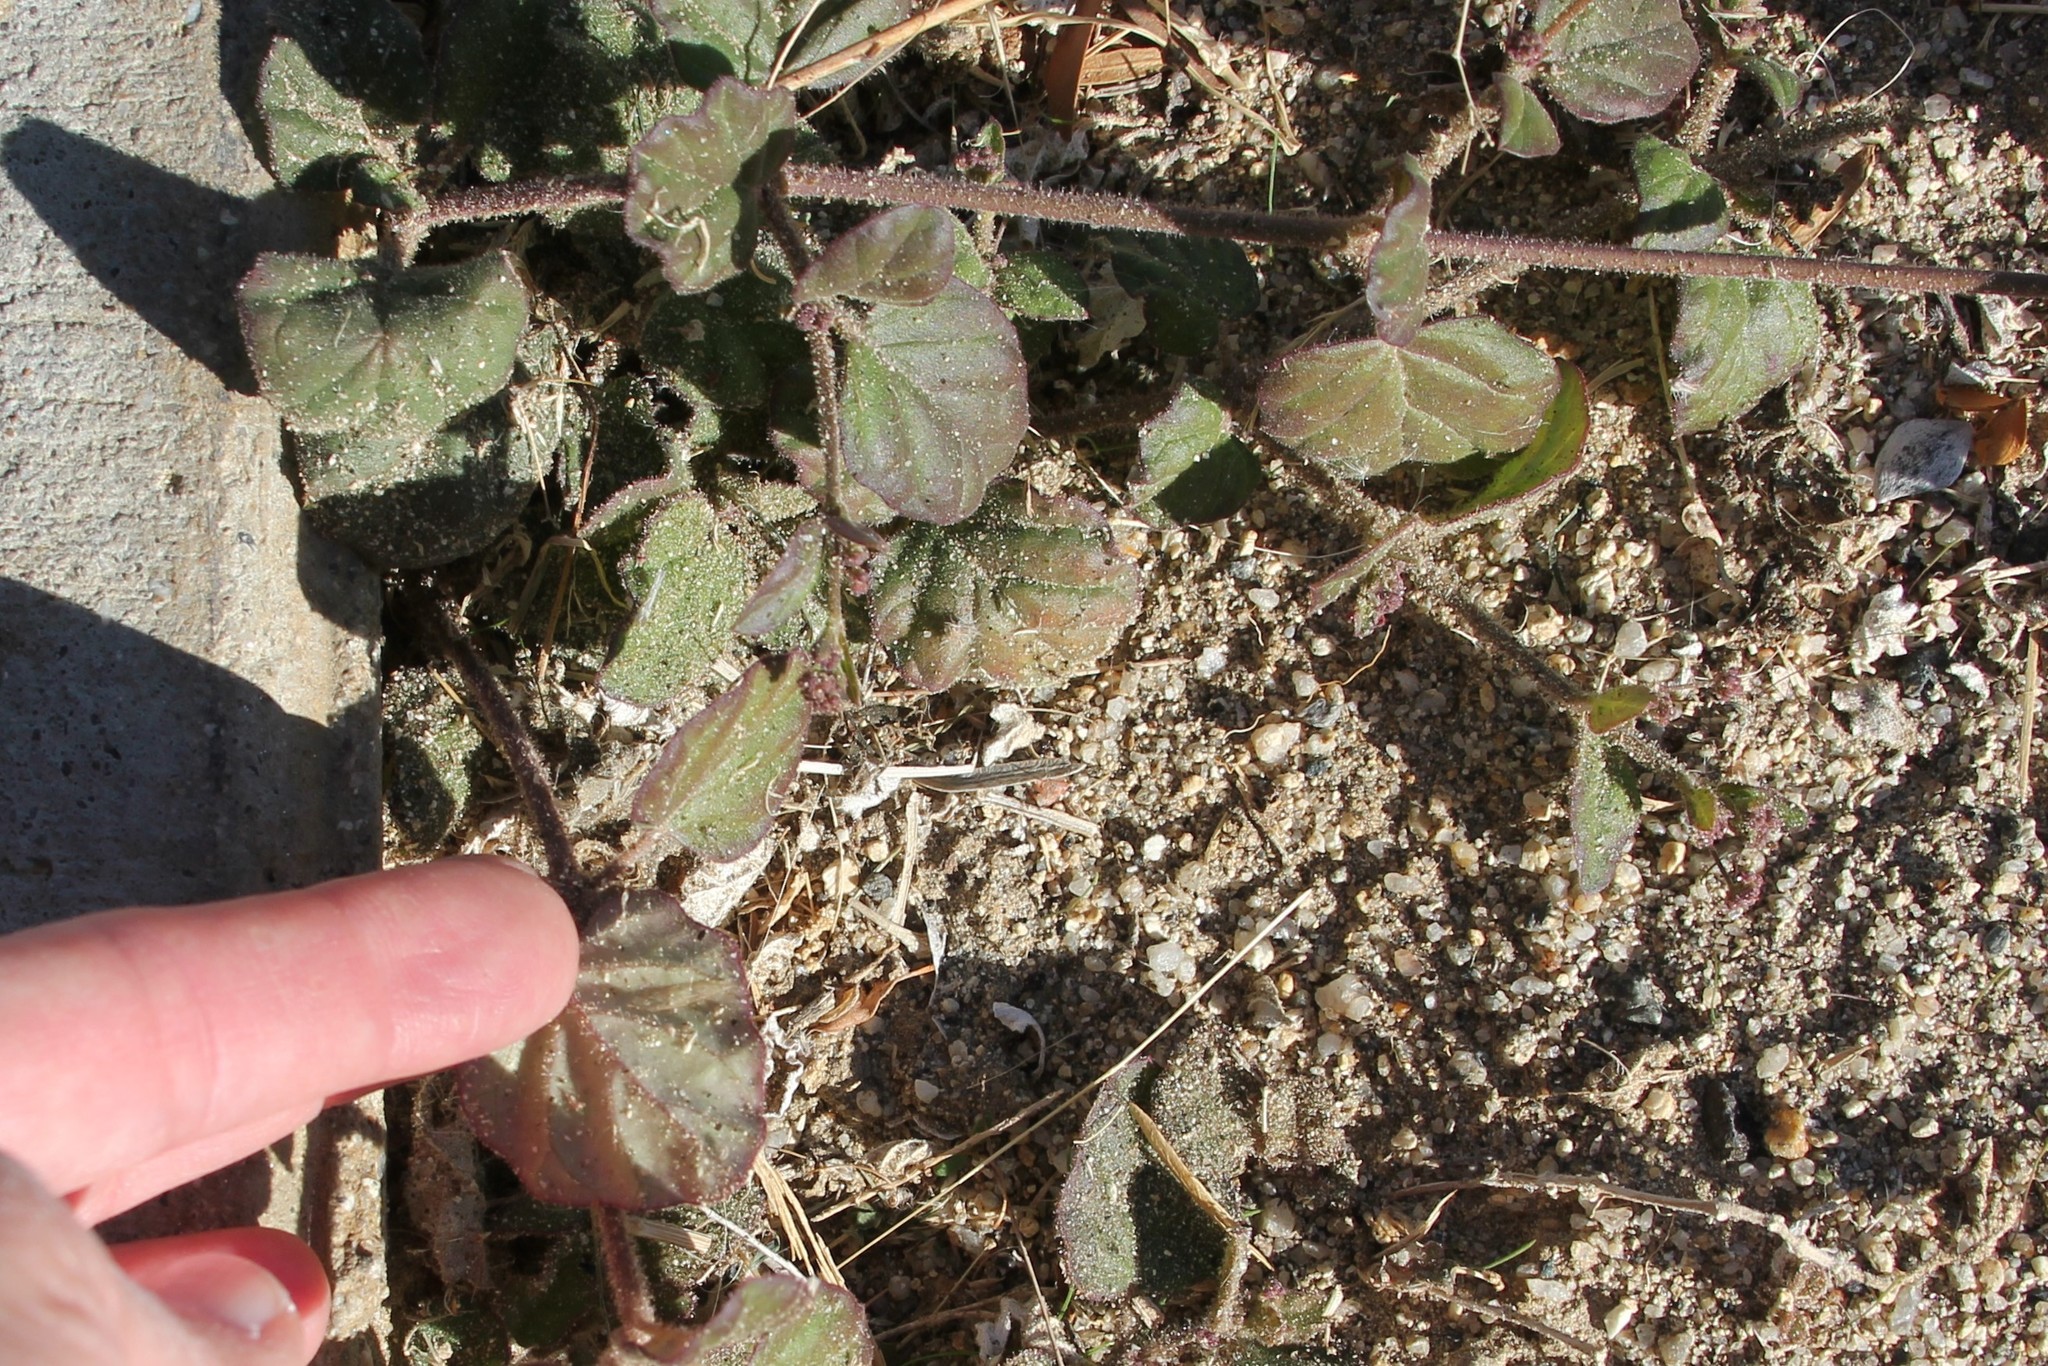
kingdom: Plantae
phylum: Tracheophyta
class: Magnoliopsida
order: Caryophyllales
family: Nyctaginaceae
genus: Boerhavia
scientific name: Boerhavia coccinea
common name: Scarlet spiderling
